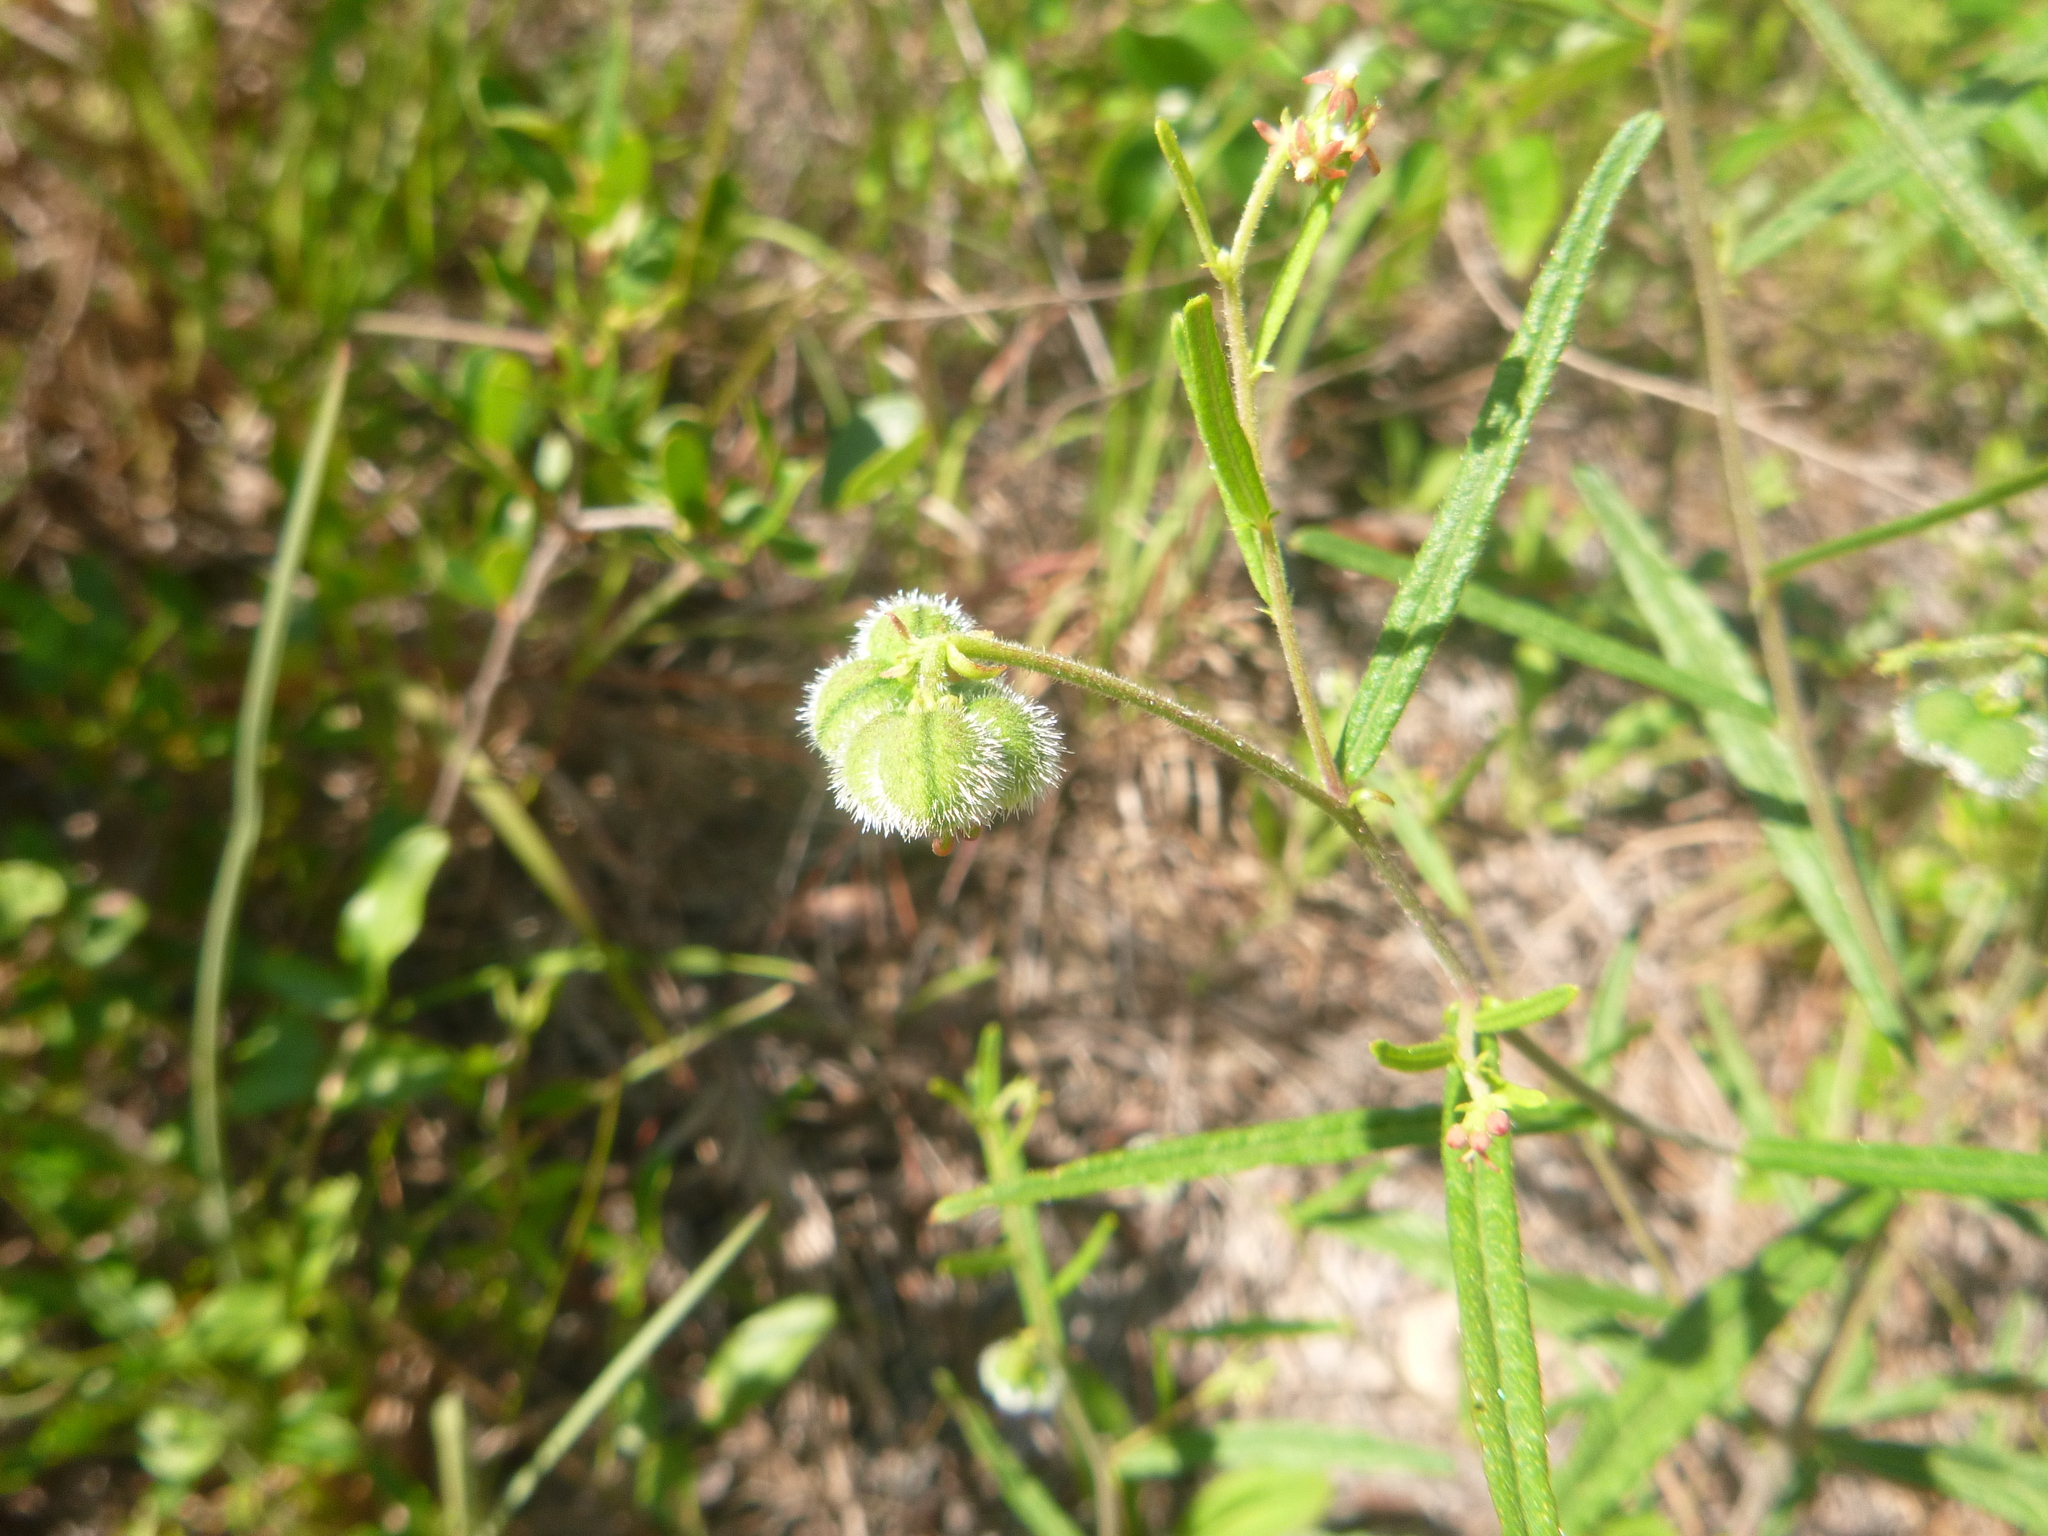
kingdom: Plantae
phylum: Tracheophyta
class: Magnoliopsida
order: Malpighiales
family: Euphorbiaceae
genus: Tragia
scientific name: Tragia urens
